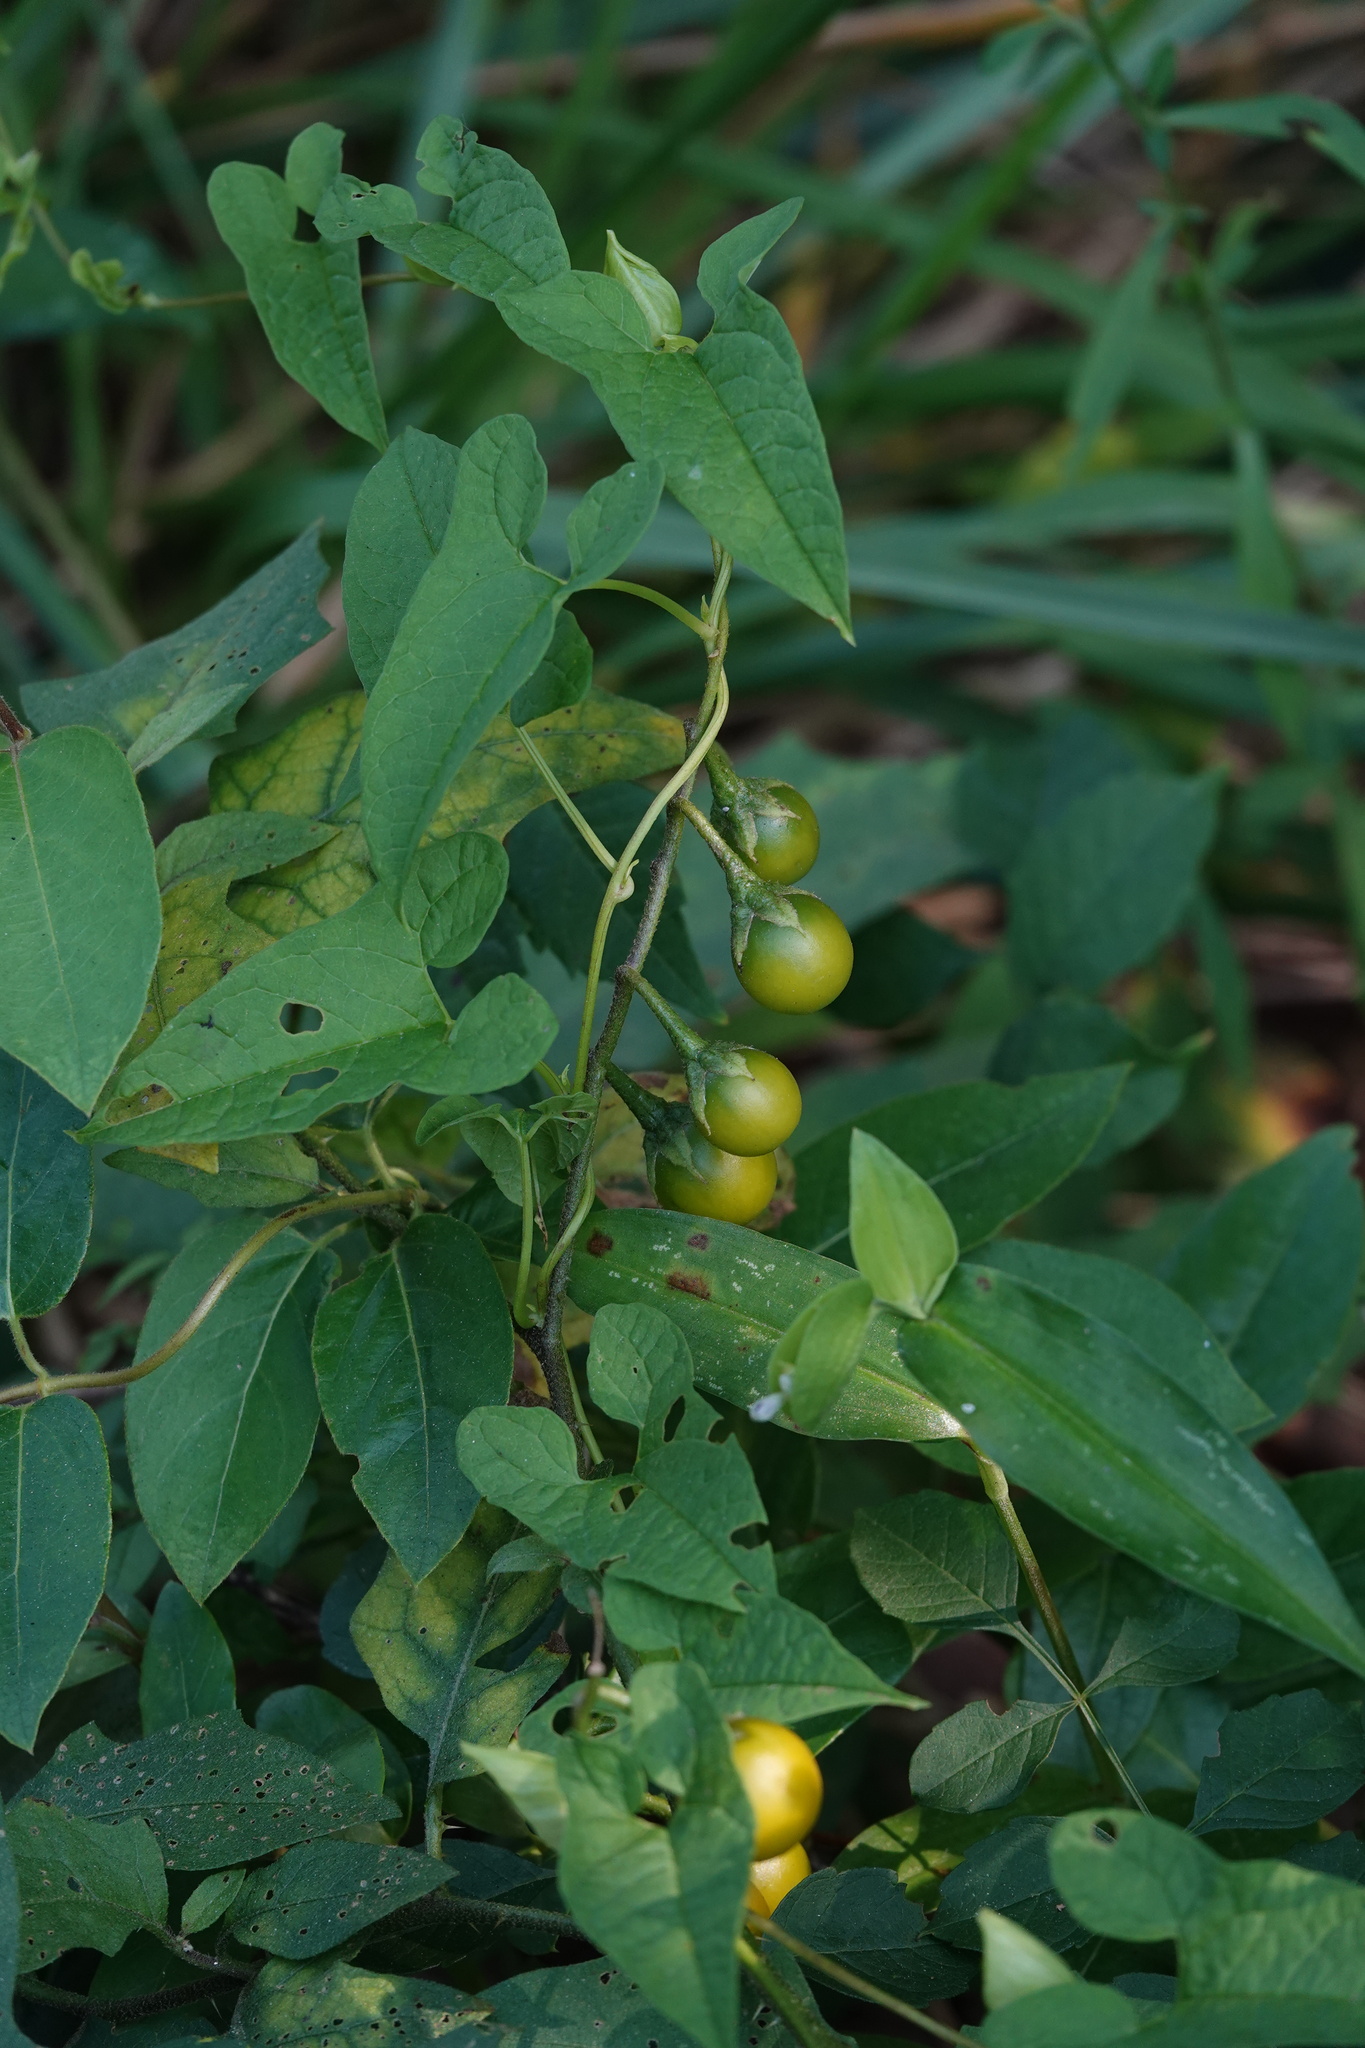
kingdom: Plantae
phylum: Tracheophyta
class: Magnoliopsida
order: Solanales
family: Solanaceae
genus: Solanum
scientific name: Solanum carolinense
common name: Horse-nettle
